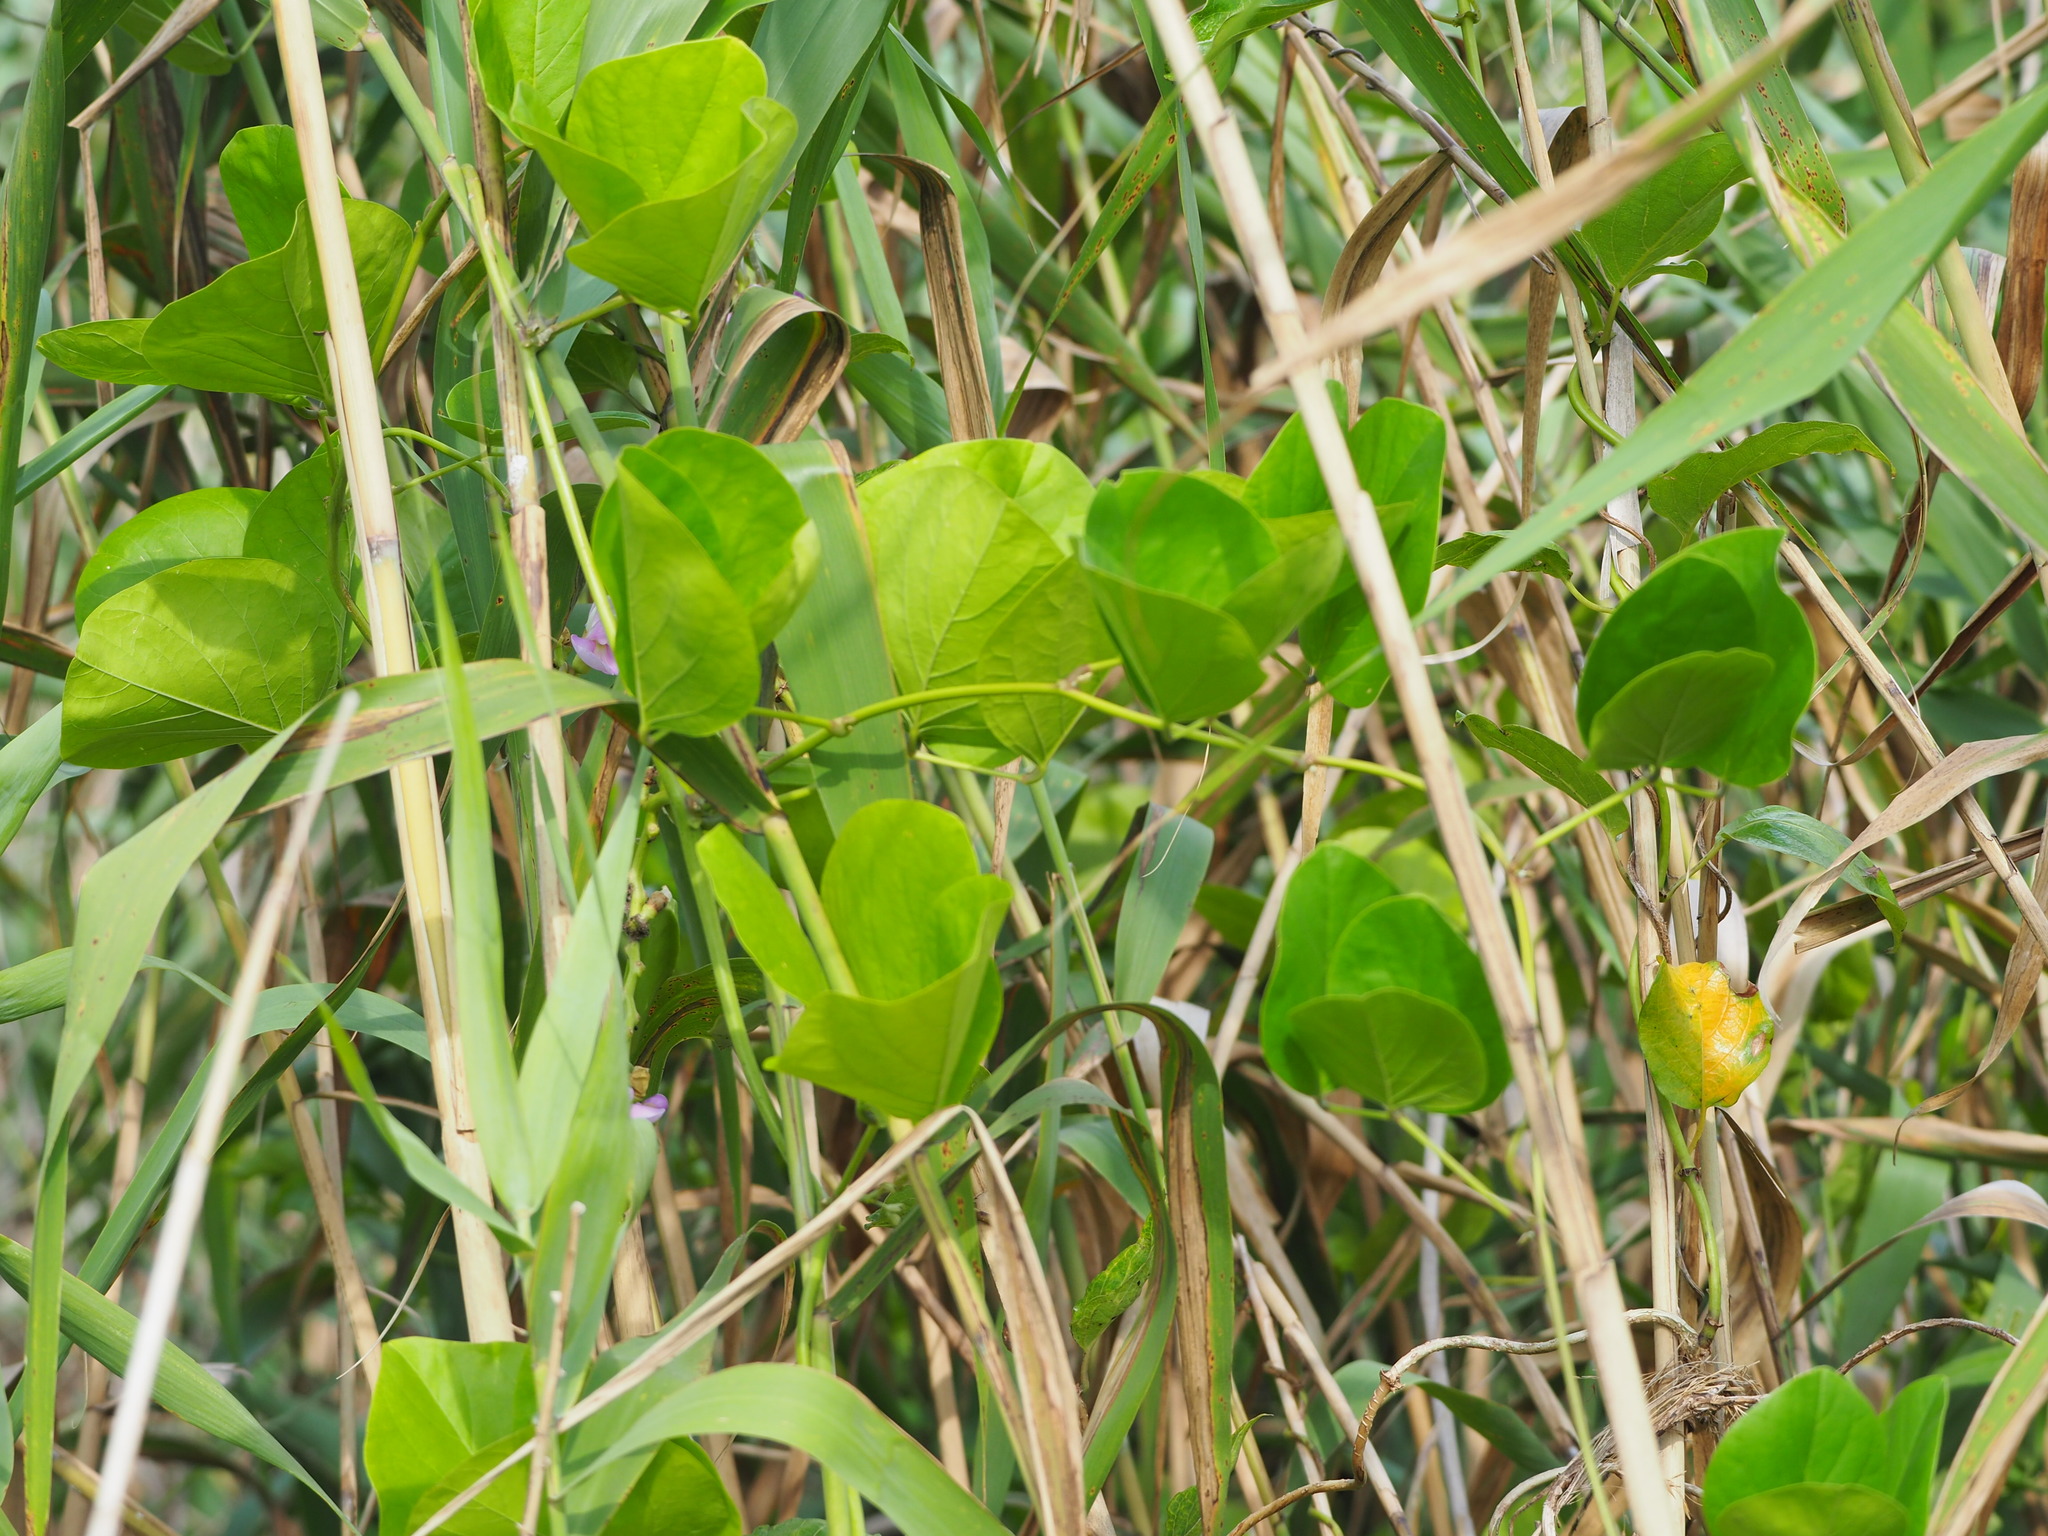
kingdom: Plantae
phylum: Tracheophyta
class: Magnoliopsida
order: Fabales
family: Fabaceae
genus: Canavalia
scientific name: Canavalia lineata
